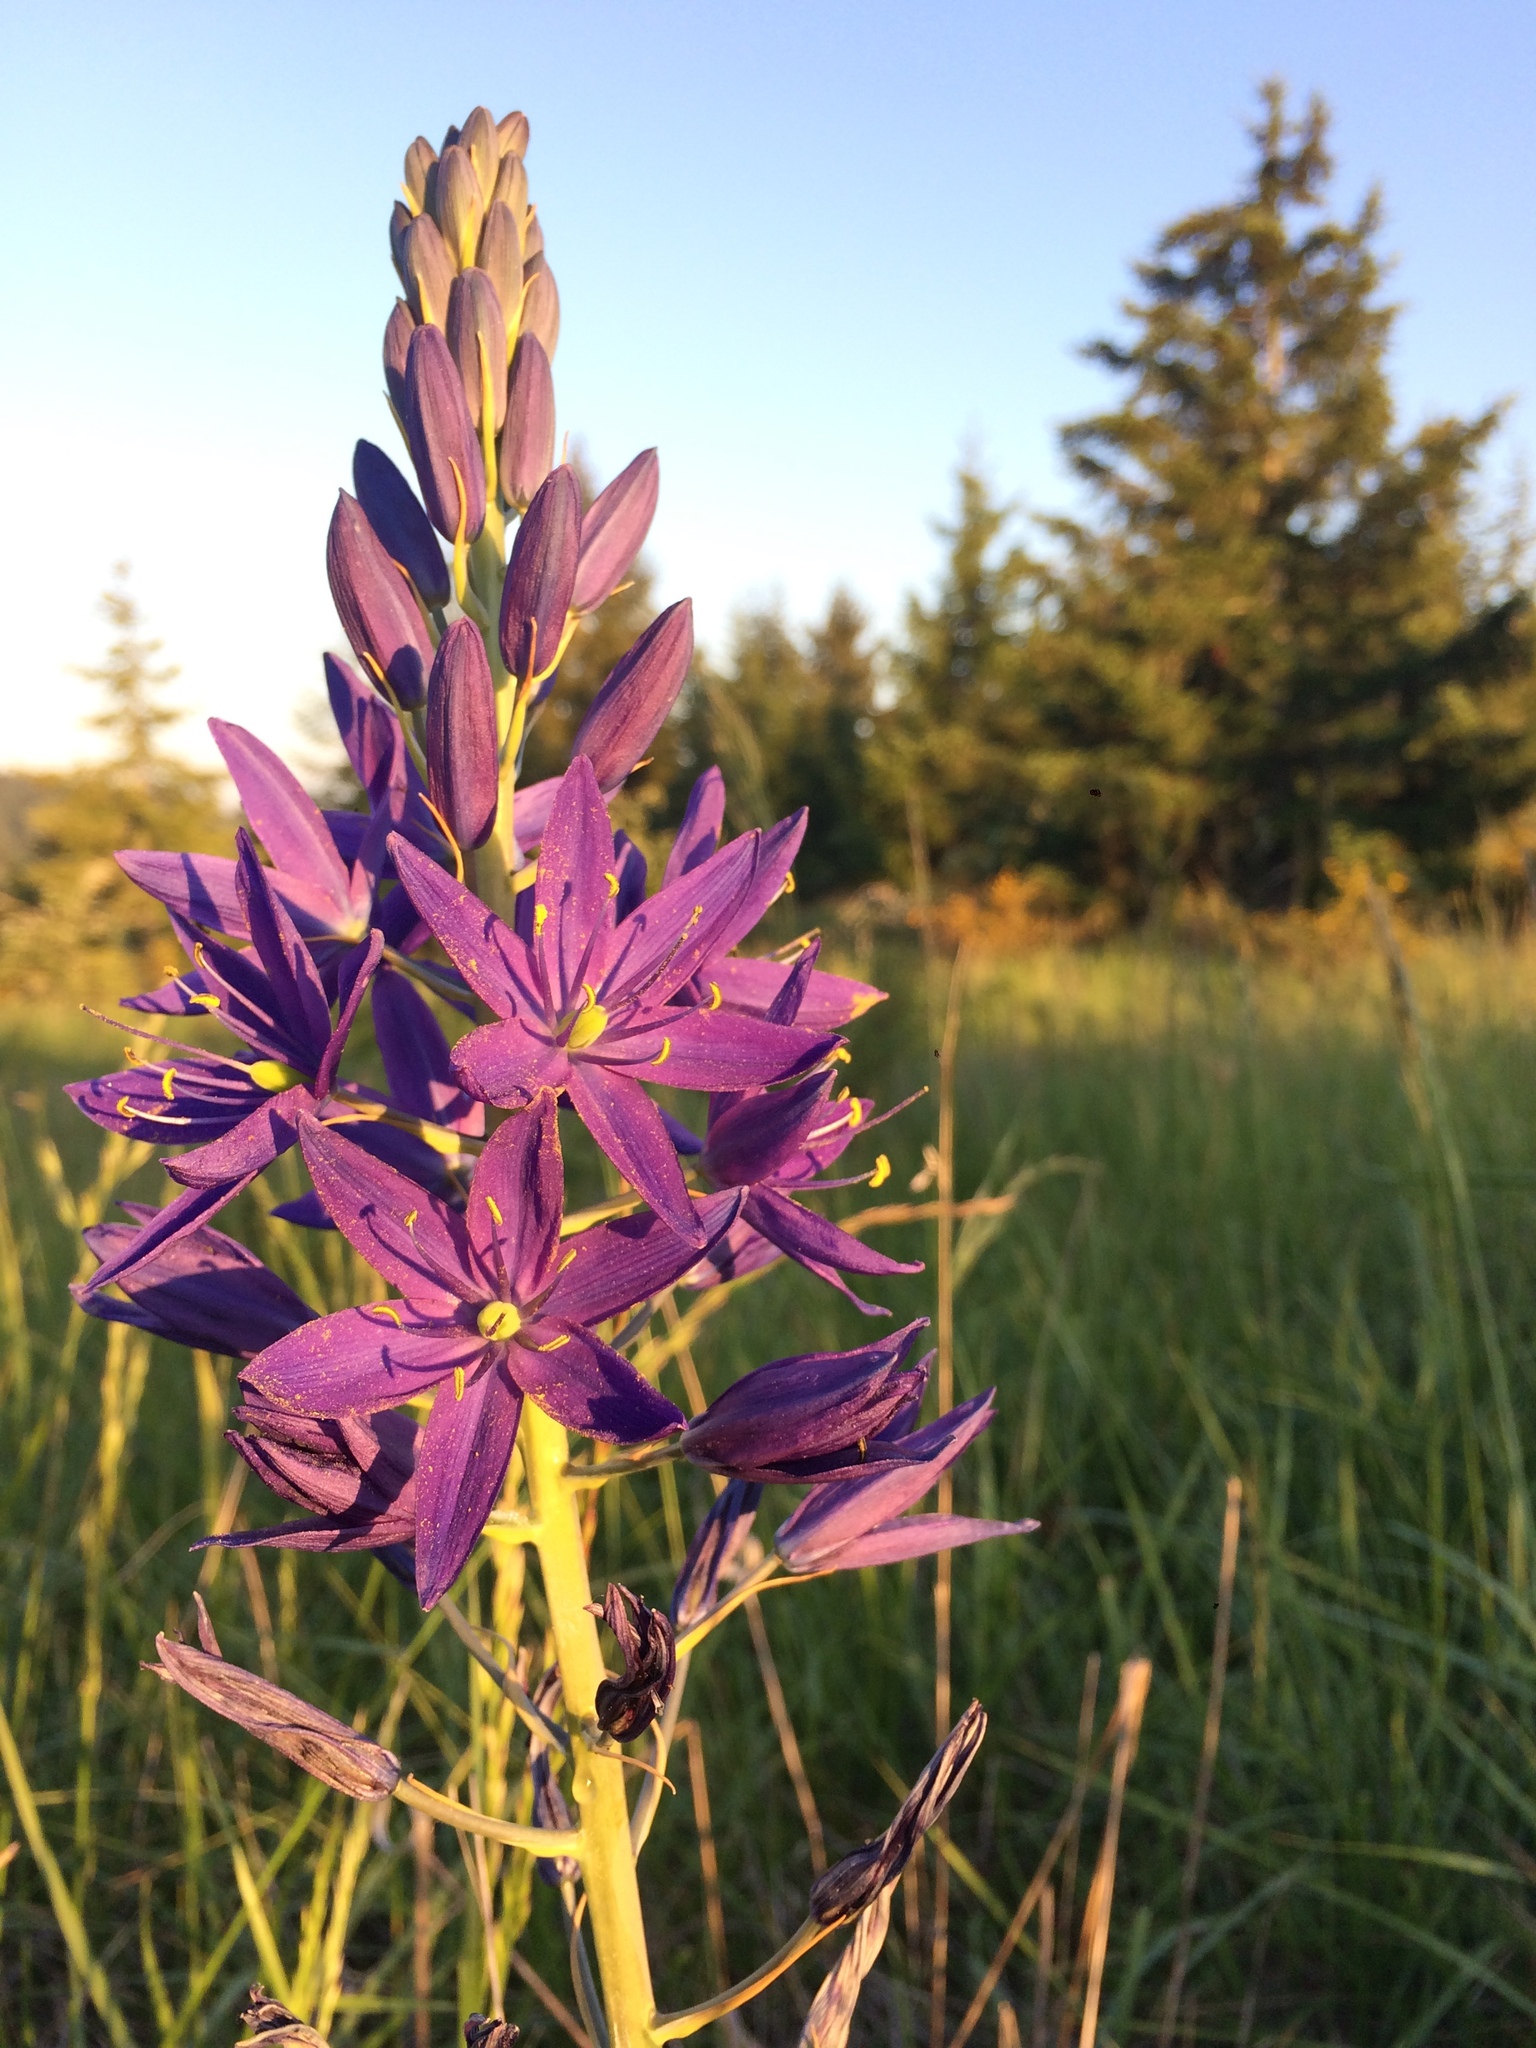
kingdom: Plantae
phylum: Tracheophyta
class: Liliopsida
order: Asparagales
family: Asparagaceae
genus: Camassia
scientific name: Camassia leichtlinii
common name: Leichtlin's camas
